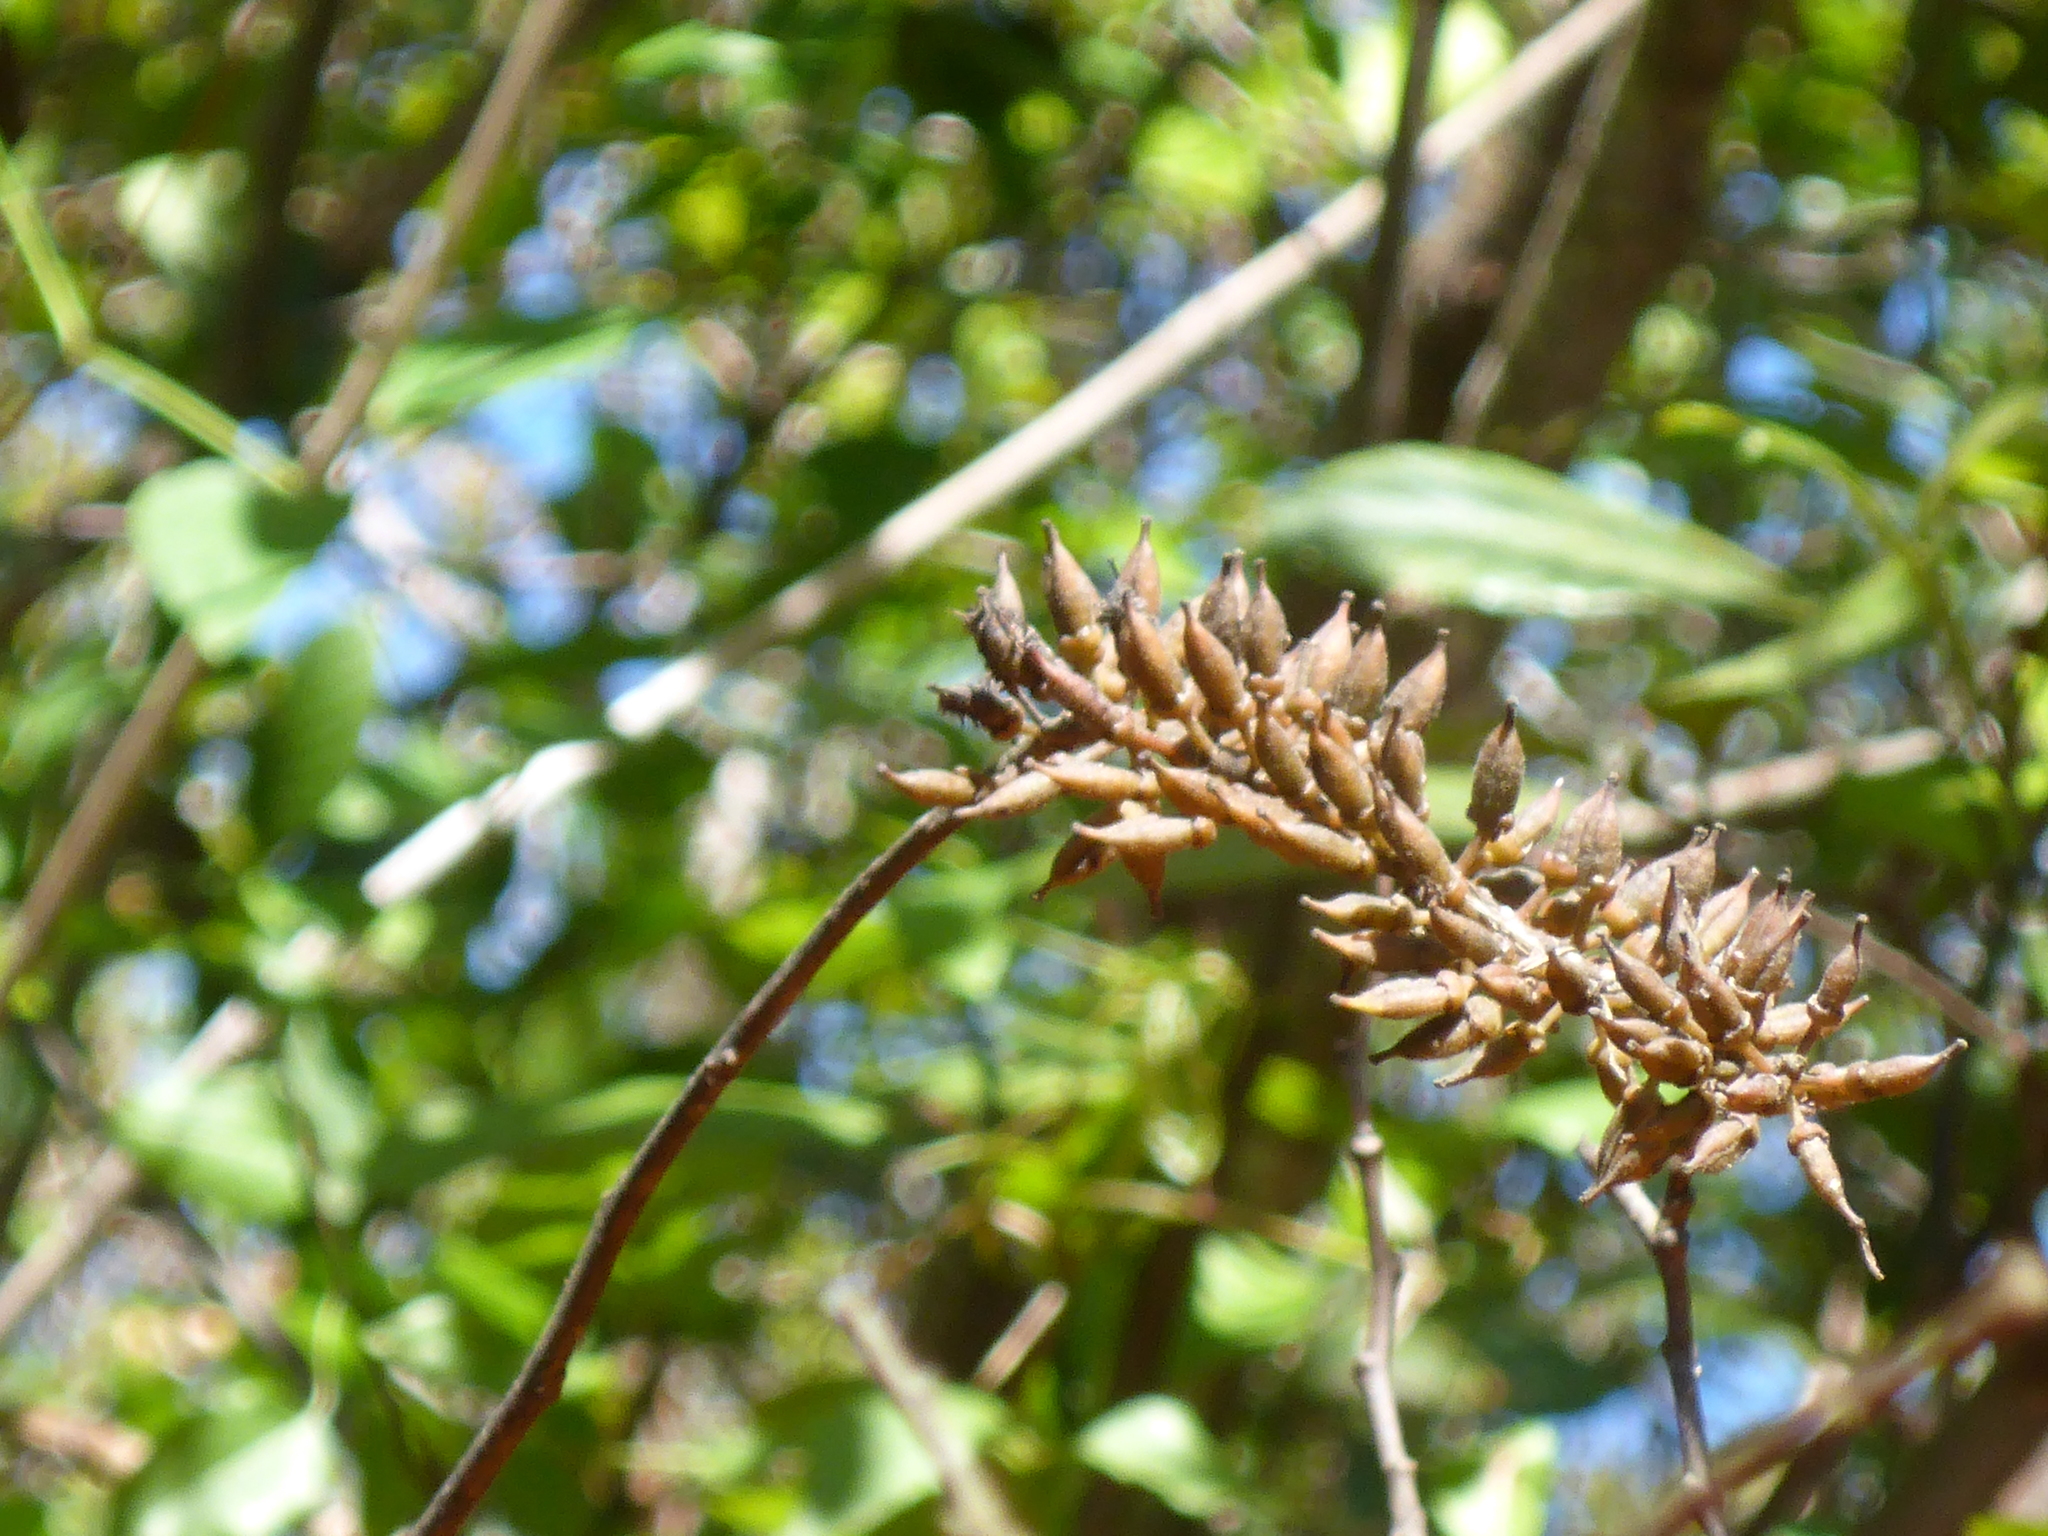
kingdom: Plantae
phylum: Tracheophyta
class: Magnoliopsida
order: Saxifragales
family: Iteaceae
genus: Itea
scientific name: Itea virginica
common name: Sweetspire
